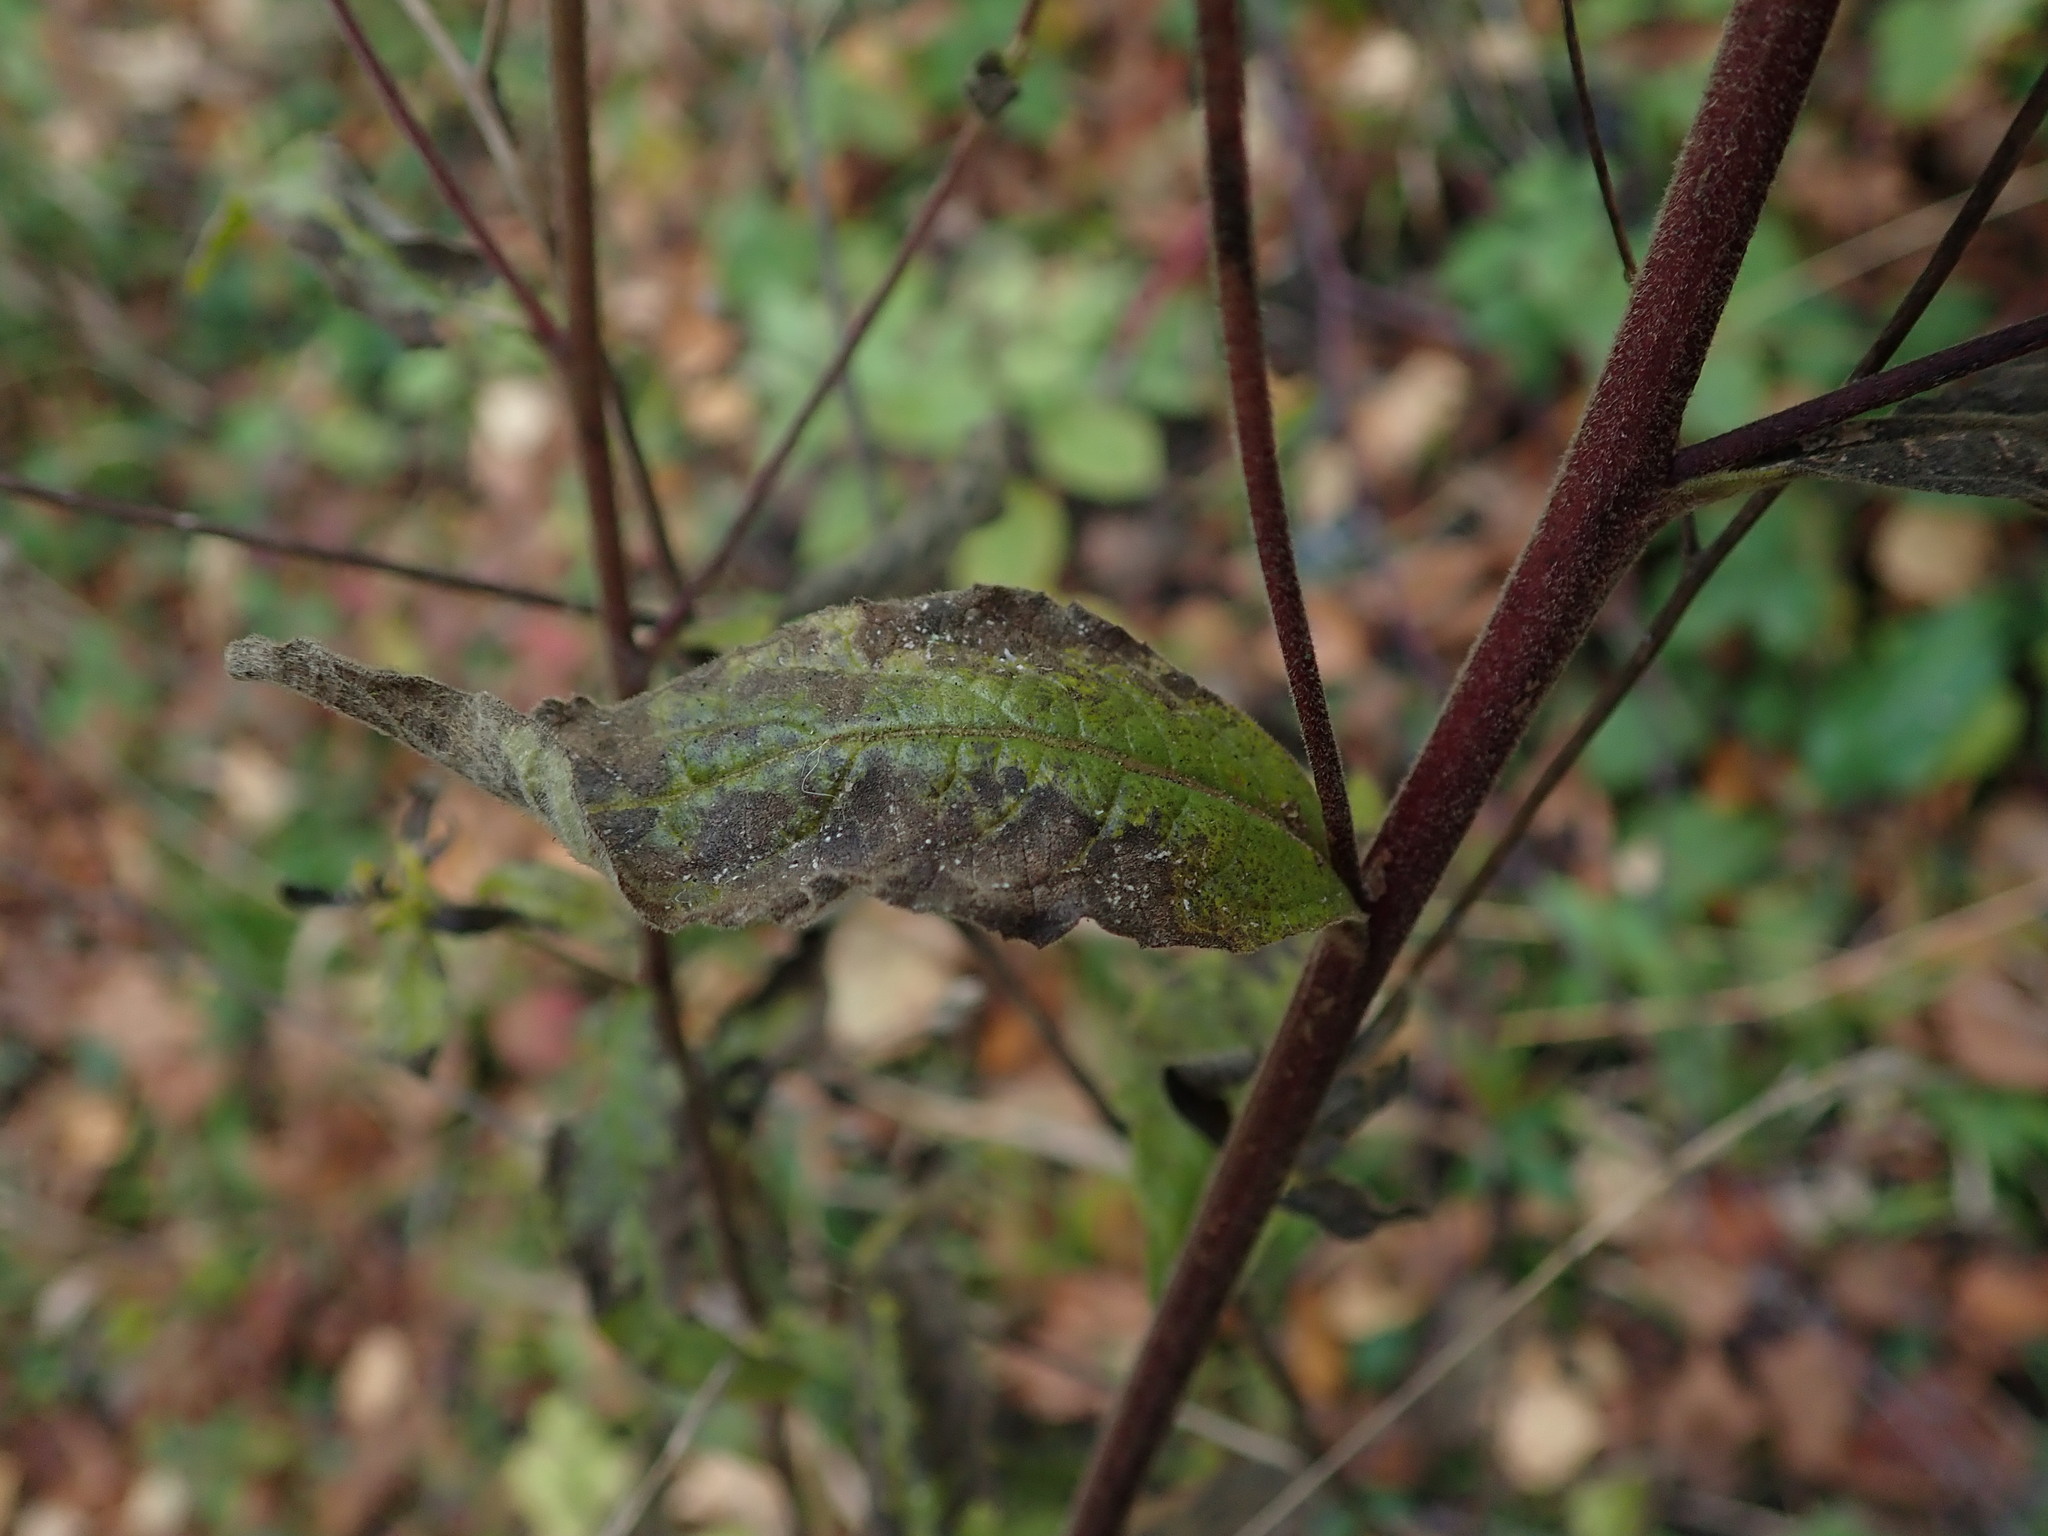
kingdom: Plantae
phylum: Tracheophyta
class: Magnoliopsida
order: Asterales
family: Asteraceae
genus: Pentanema
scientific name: Pentanema squarrosum
